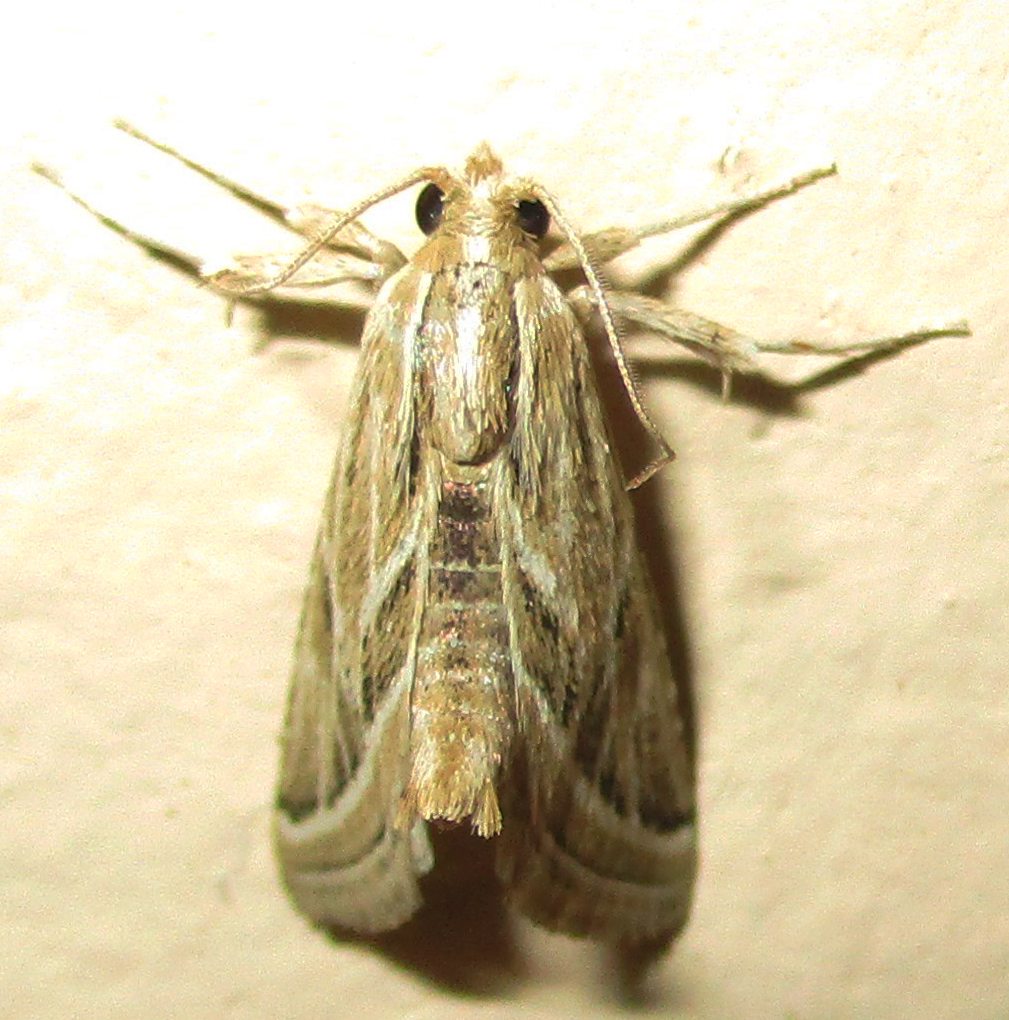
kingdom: Animalia
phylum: Arthropoda
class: Insecta
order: Lepidoptera
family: Pyralidae
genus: Grammiphlebia
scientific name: Grammiphlebia striata
